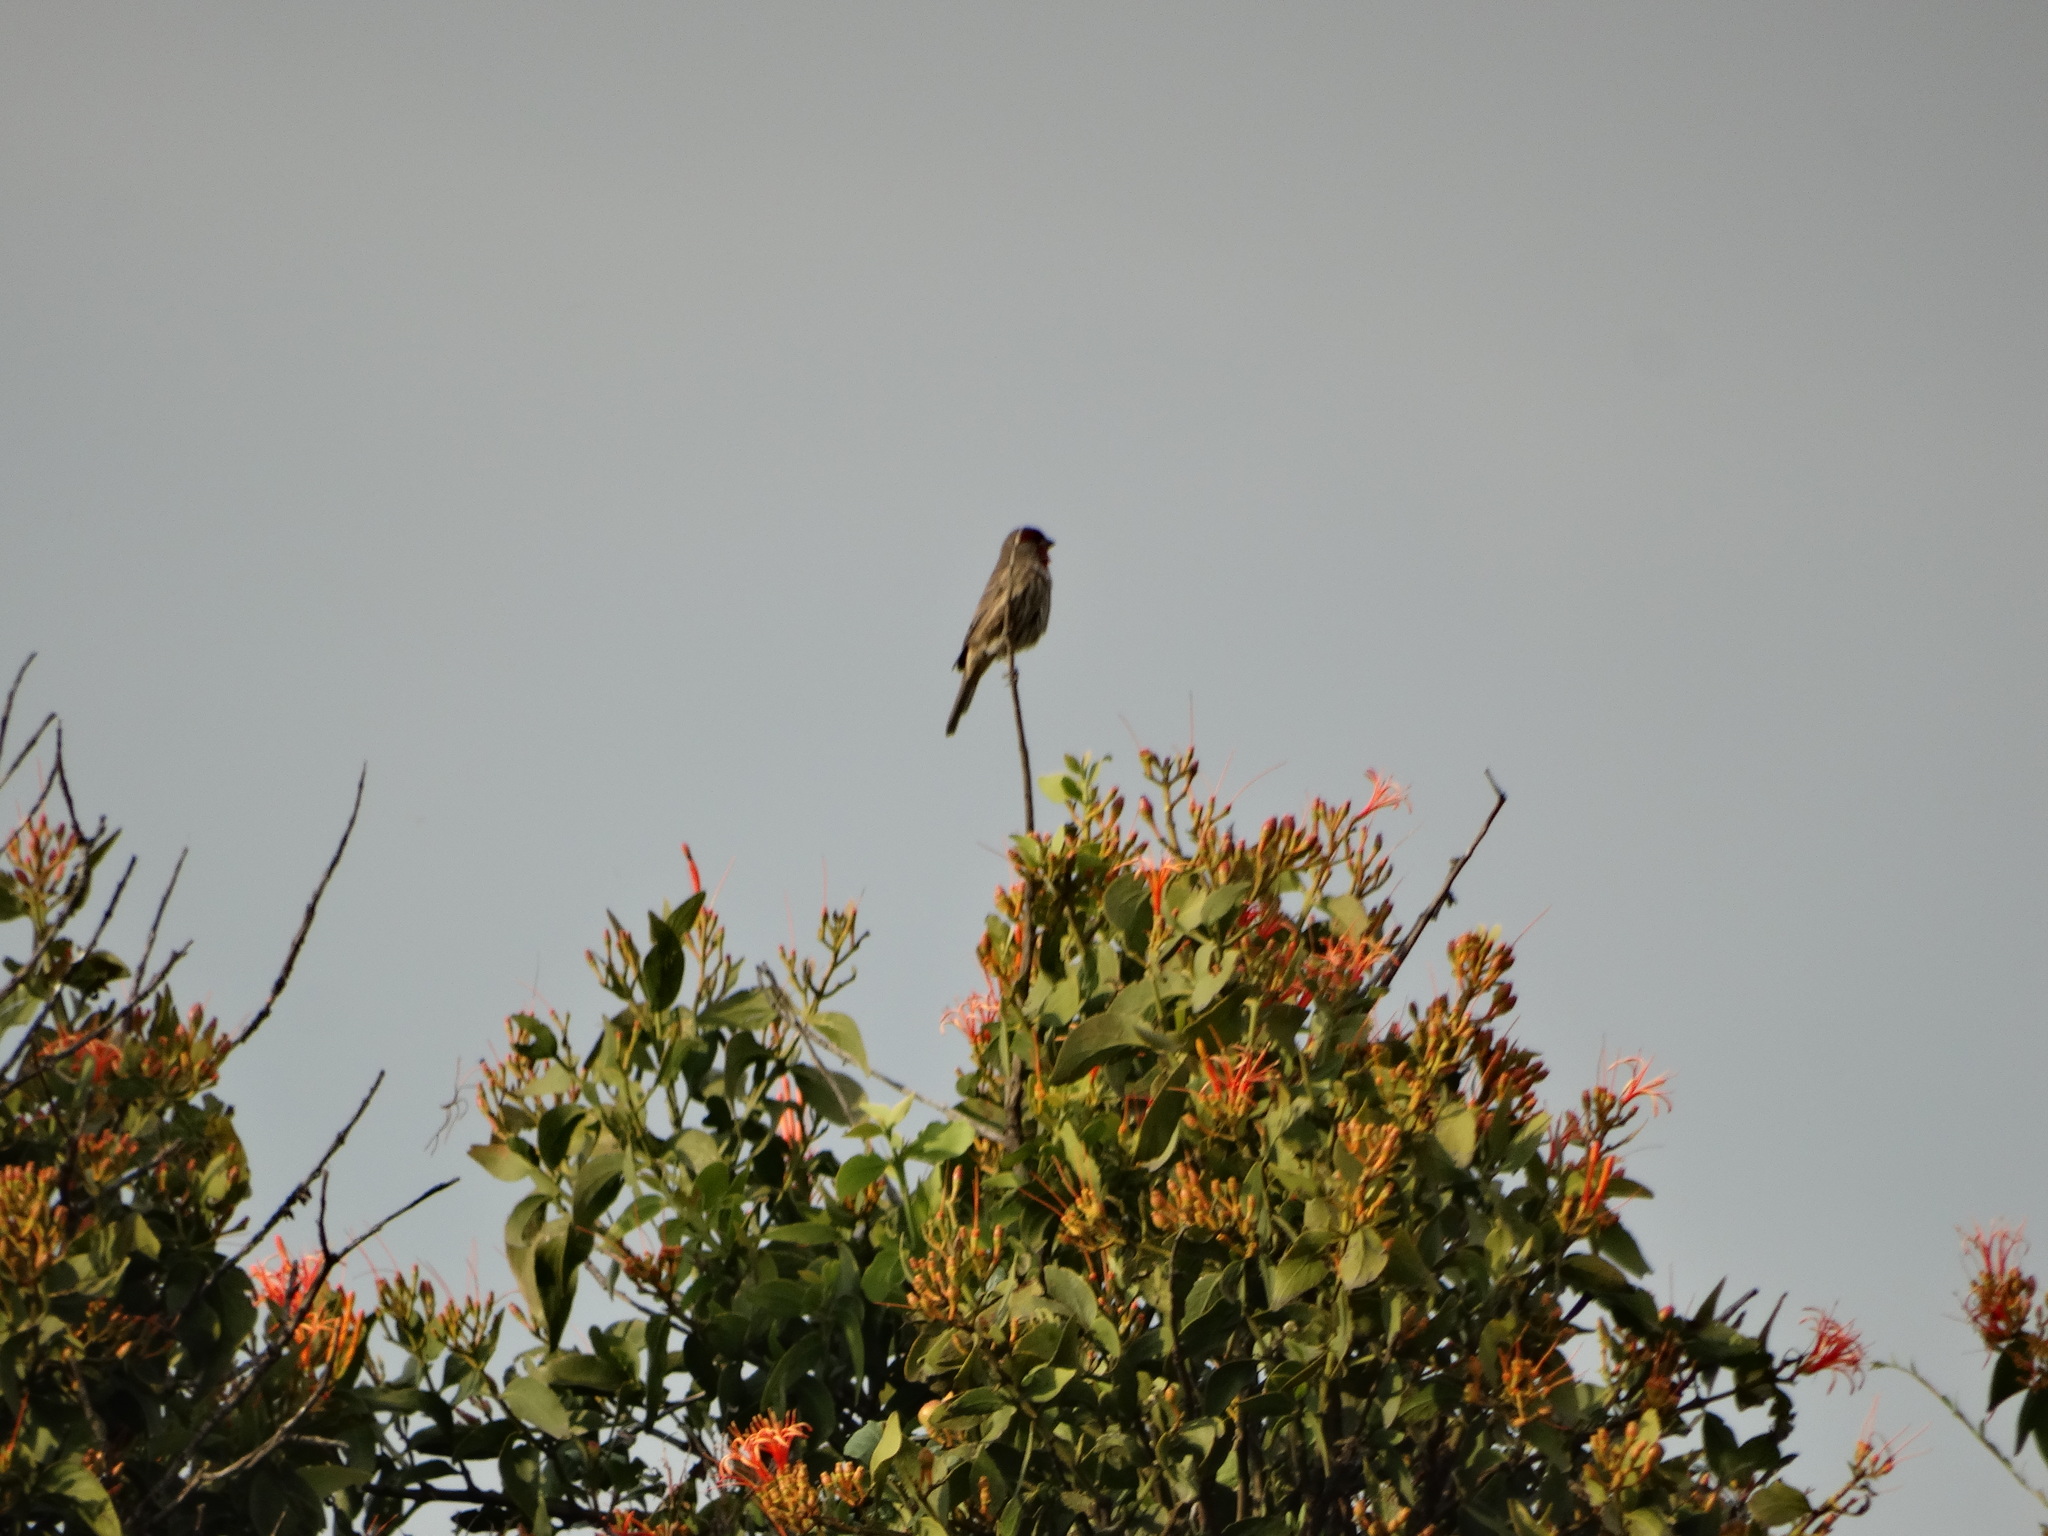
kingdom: Animalia
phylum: Chordata
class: Aves
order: Passeriformes
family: Fringillidae
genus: Haemorhous
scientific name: Haemorhous mexicanus
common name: House finch
